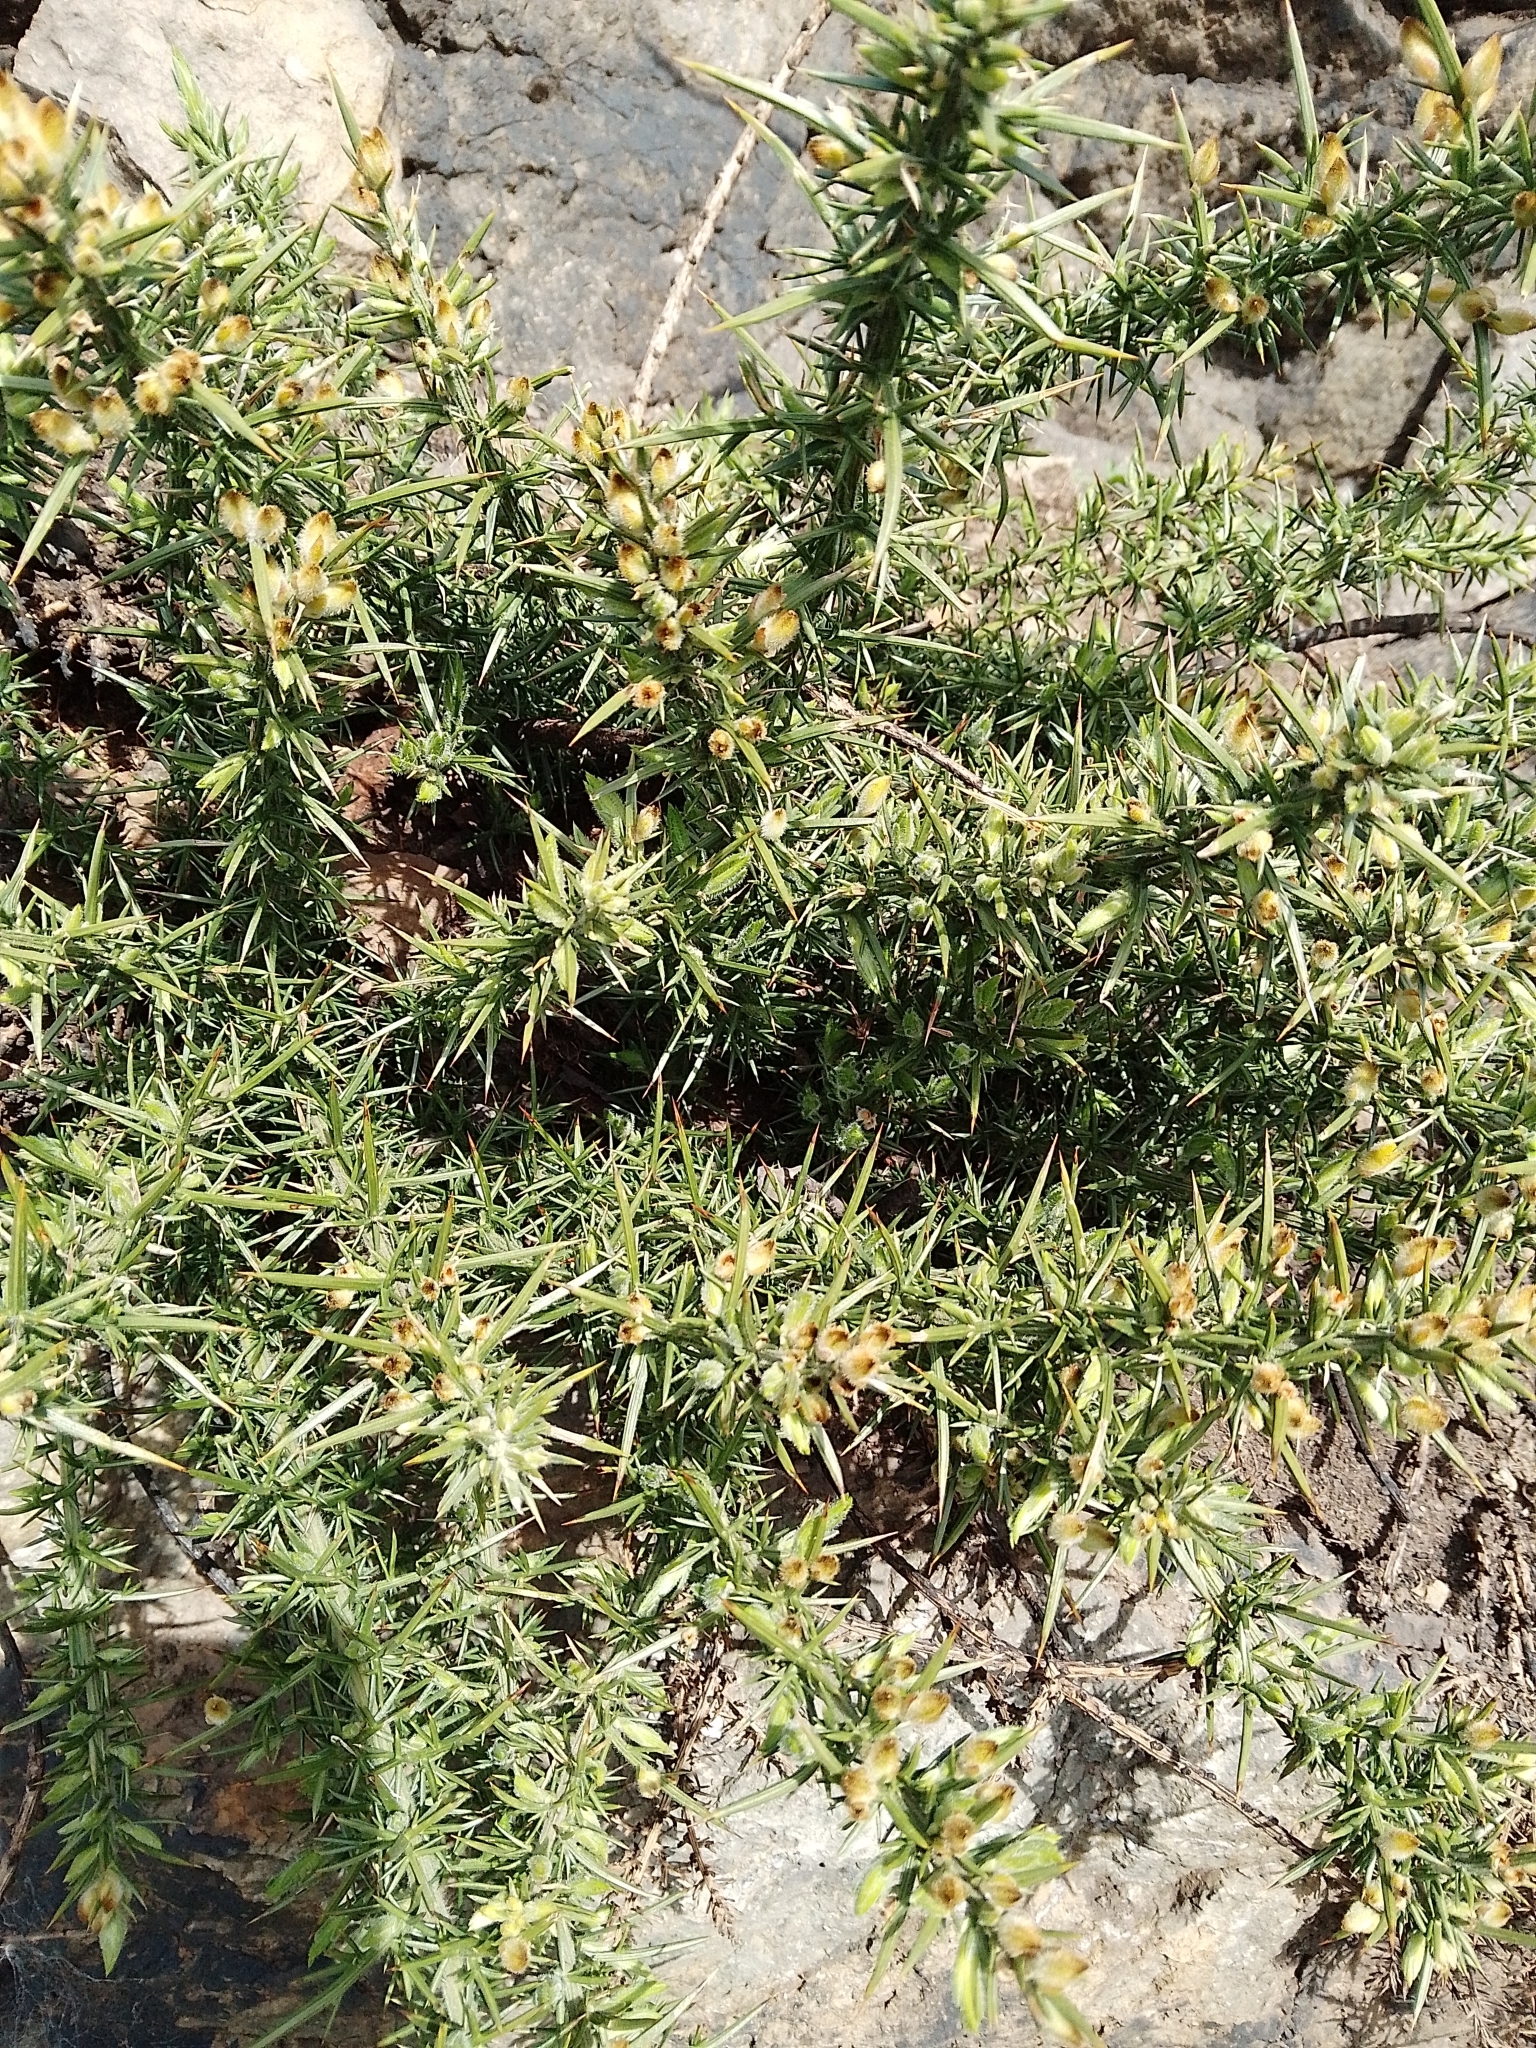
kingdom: Plantae
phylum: Tracheophyta
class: Magnoliopsida
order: Fabales
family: Fabaceae
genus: Ulex
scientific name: Ulex europaeus
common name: Common gorse
